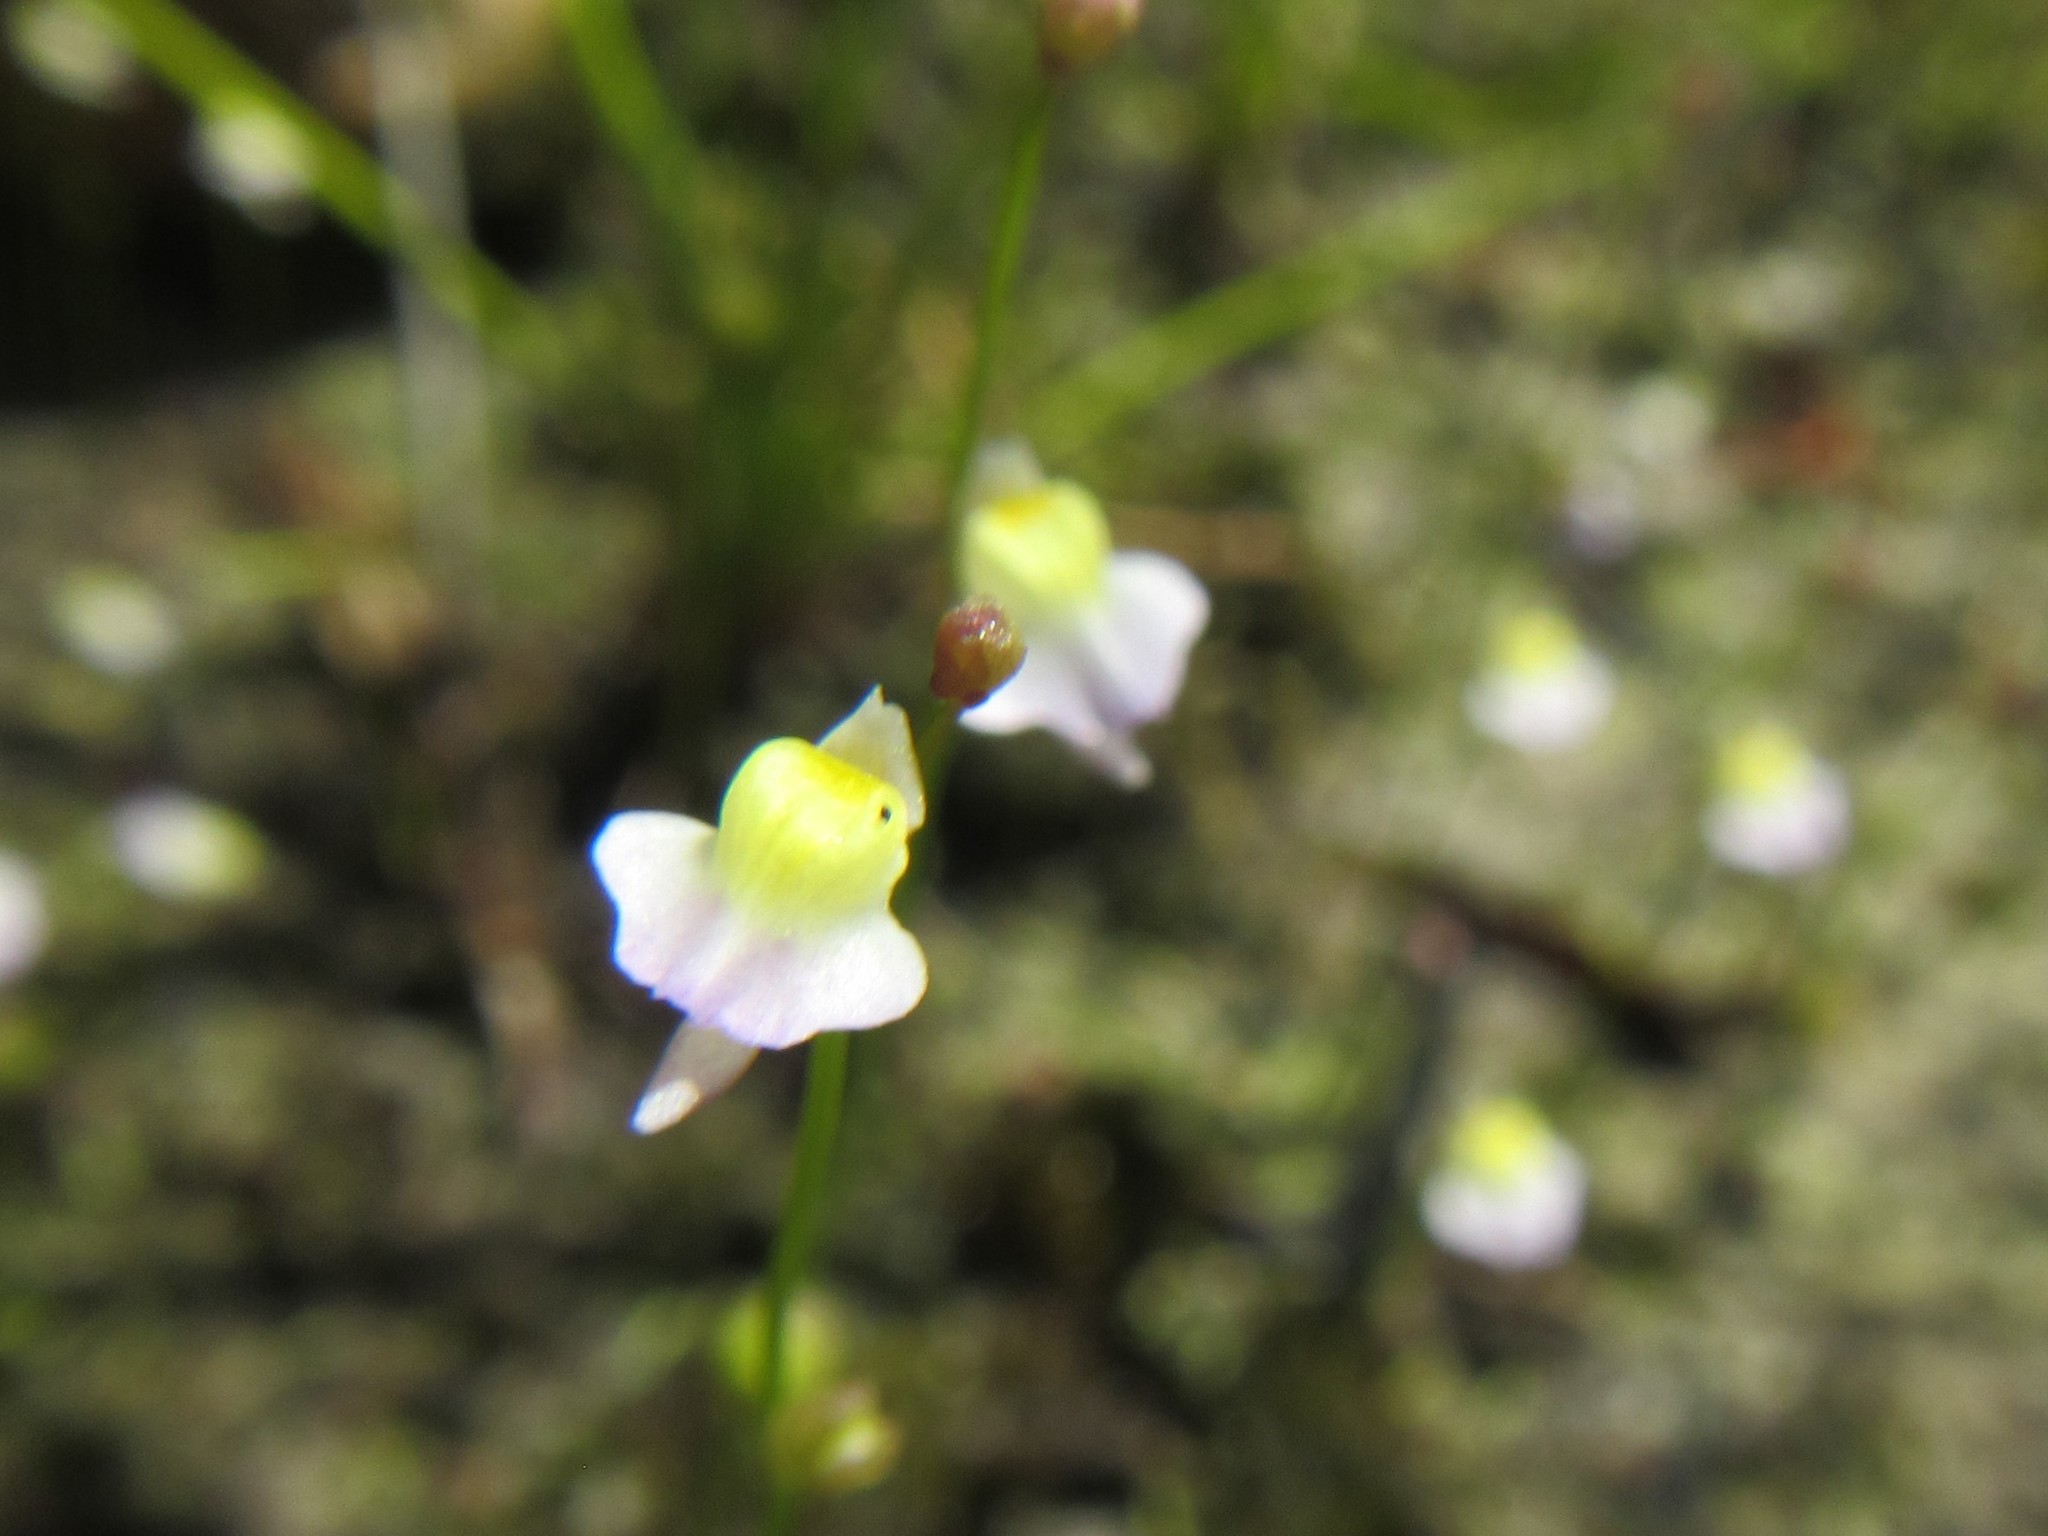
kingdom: Plantae
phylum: Tracheophyta
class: Magnoliopsida
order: Lamiales
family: Lentibulariaceae
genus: Utricularia
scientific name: Utricularia bisquamata
